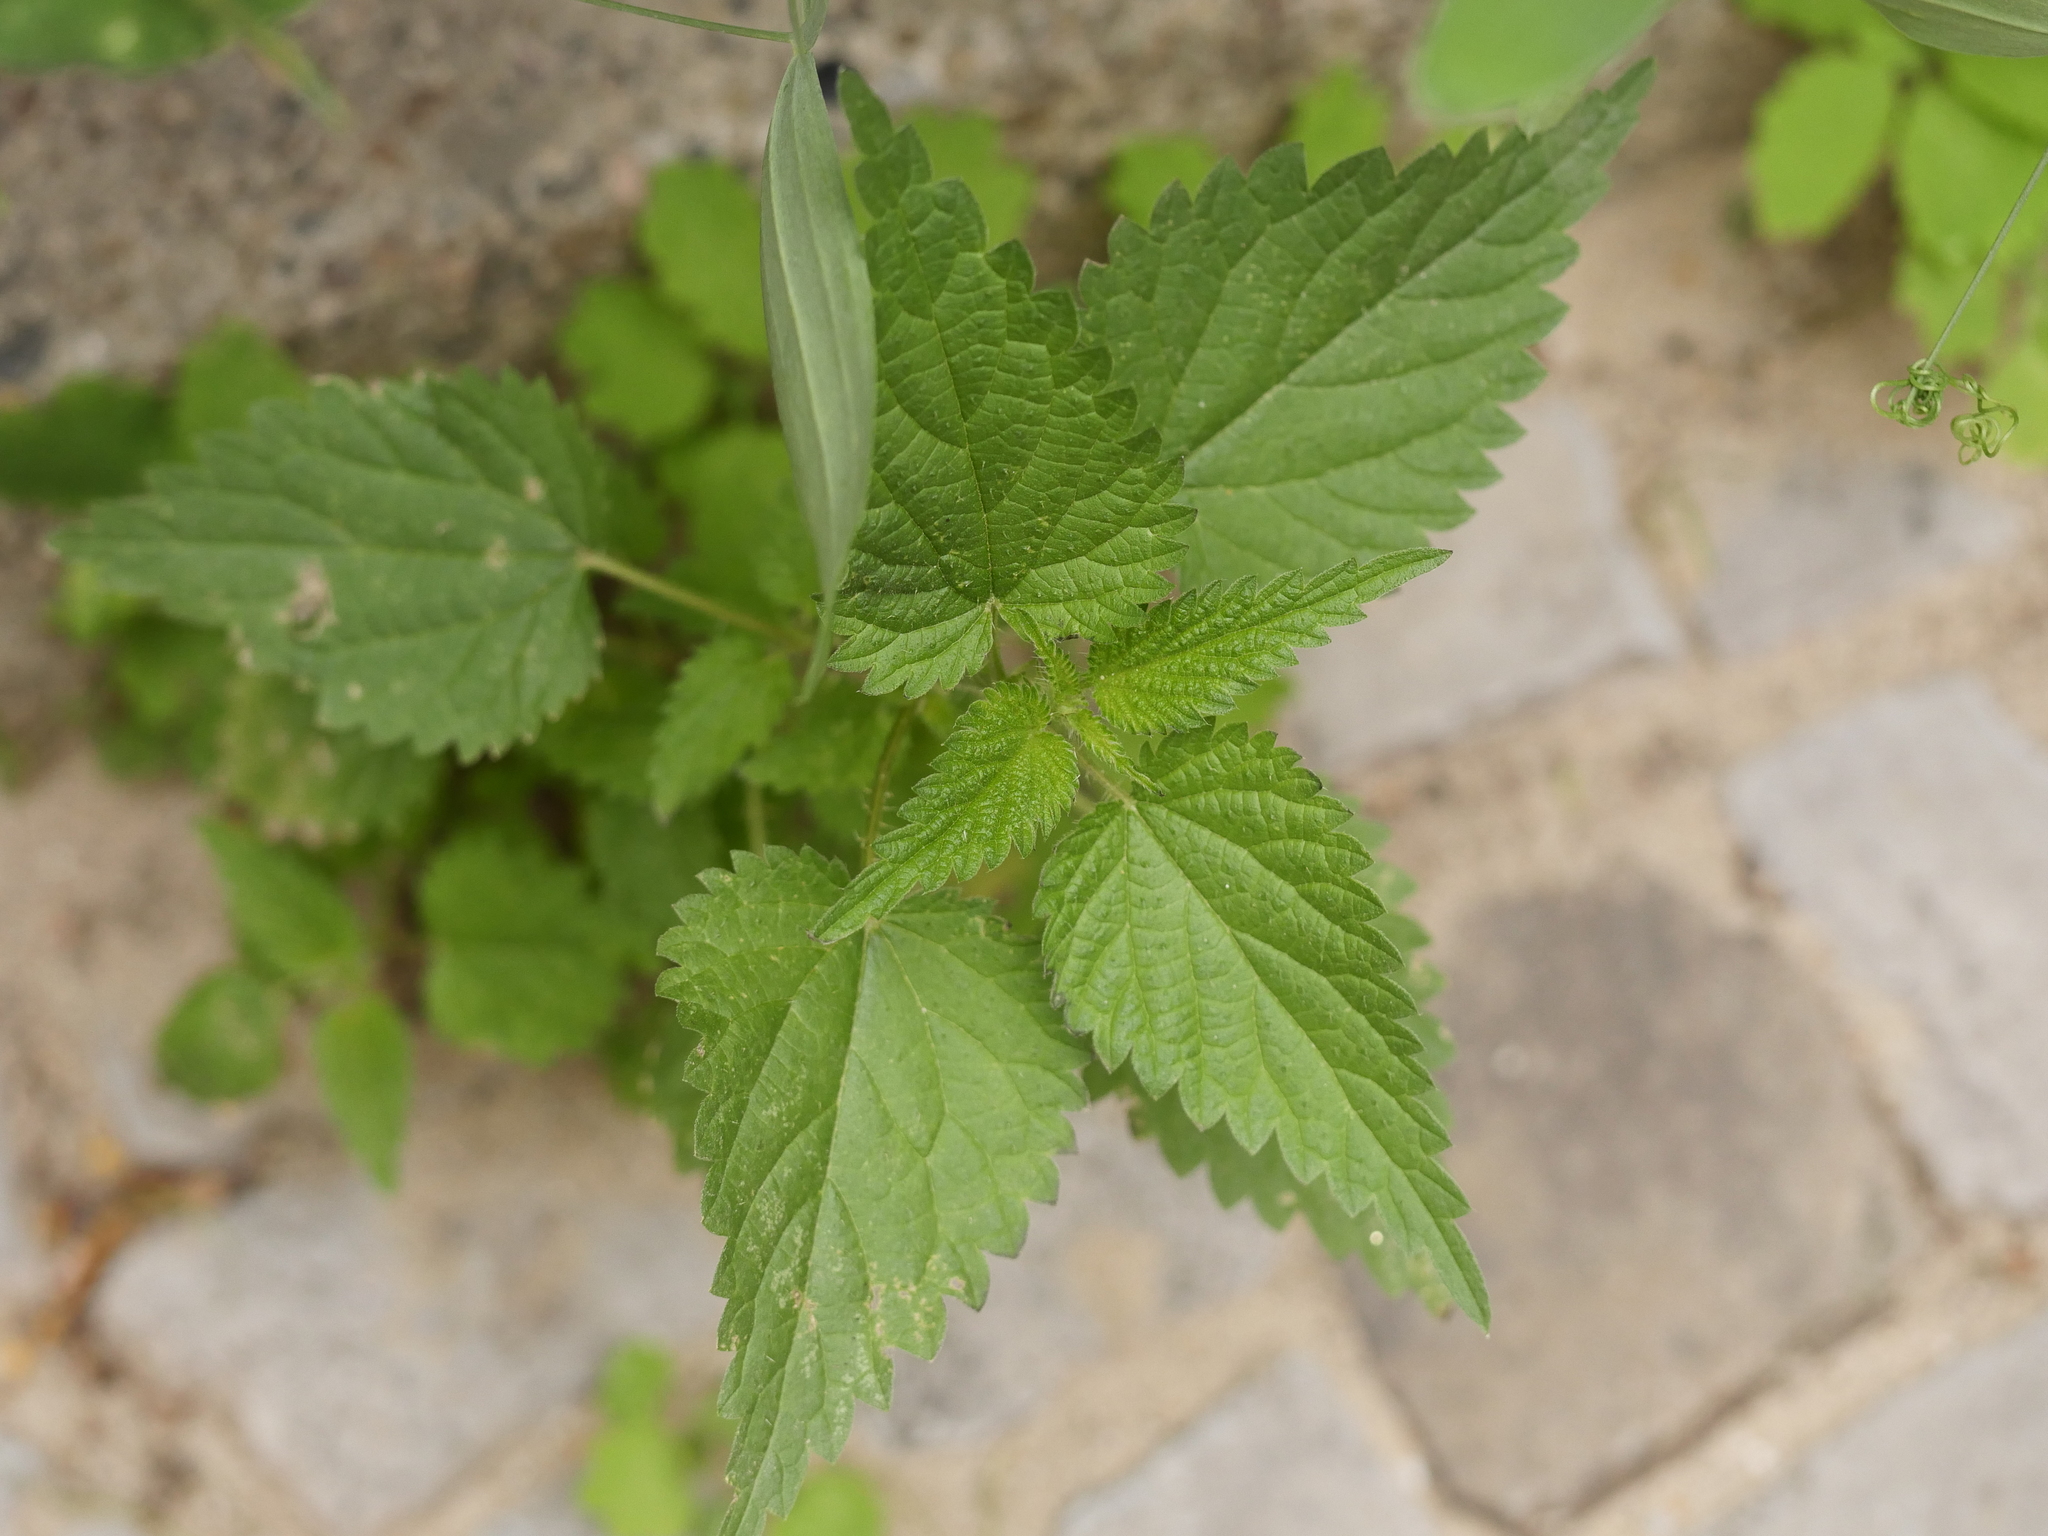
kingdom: Plantae
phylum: Tracheophyta
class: Magnoliopsida
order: Rosales
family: Urticaceae
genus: Urtica
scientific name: Urtica dioica
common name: Common nettle
